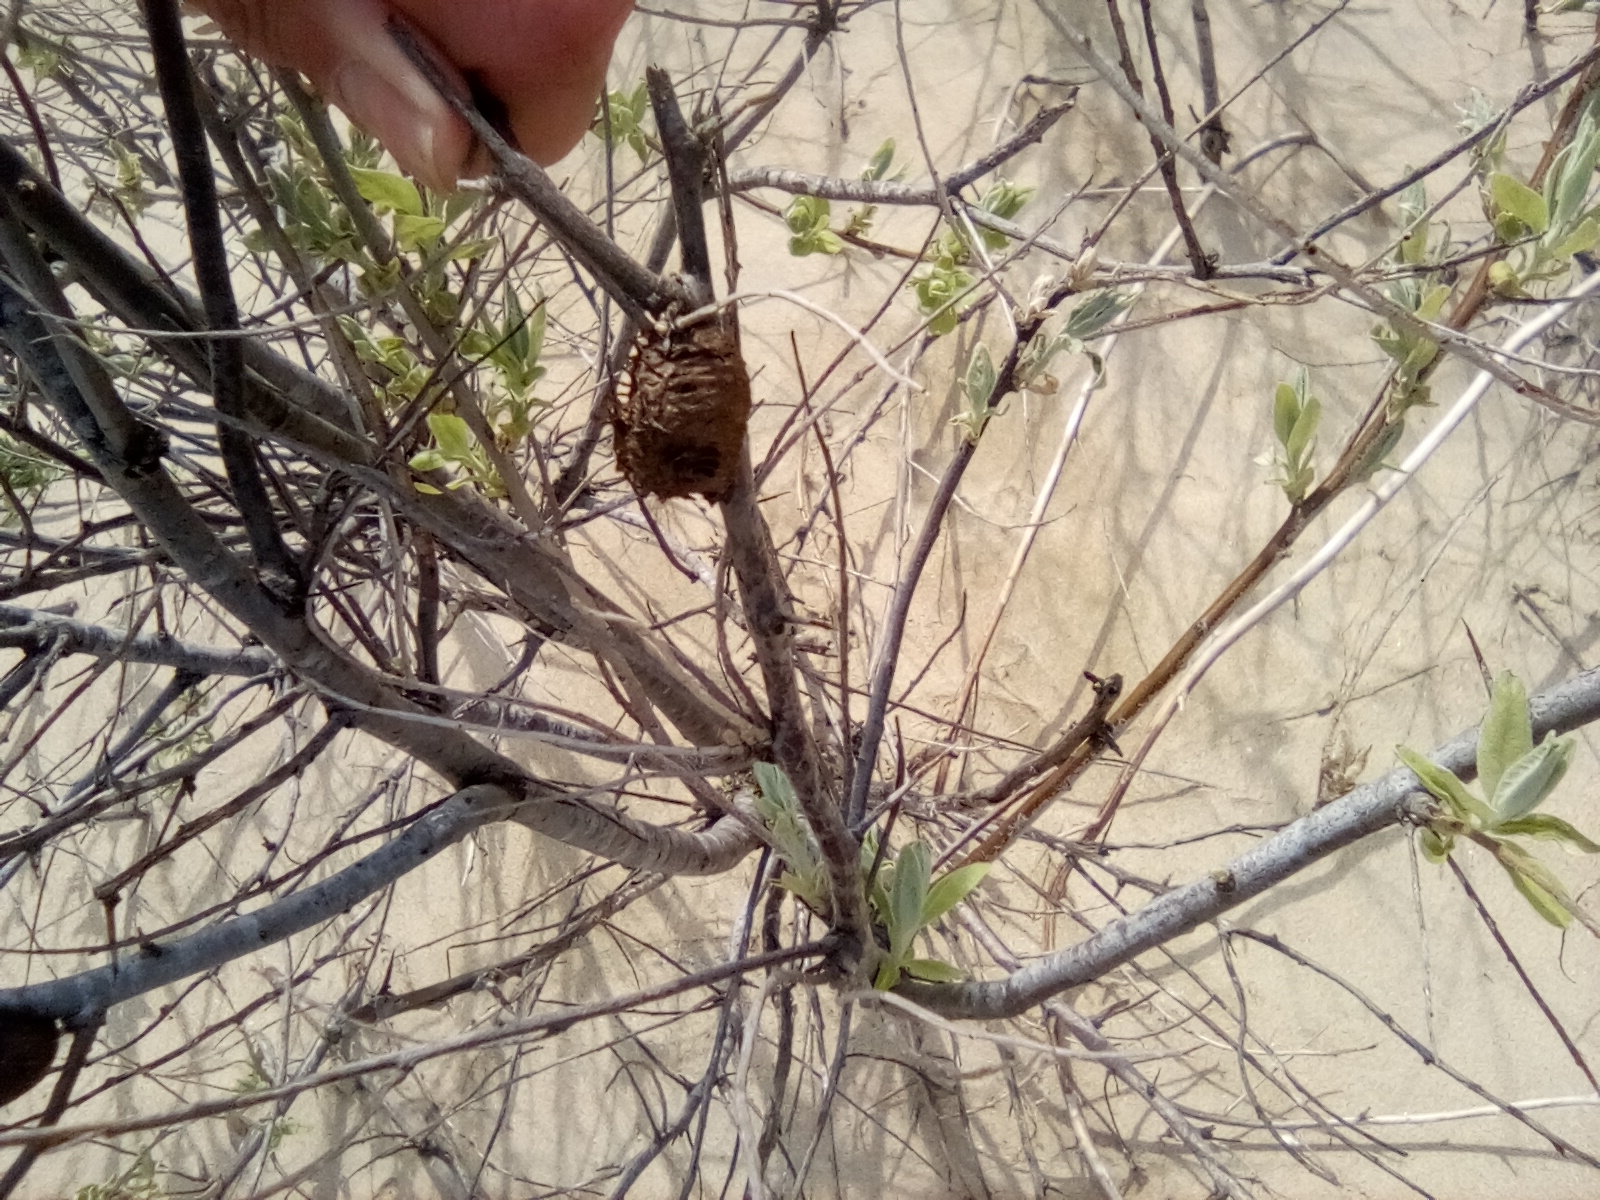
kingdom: Animalia
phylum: Arthropoda
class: Insecta
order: Mantodea
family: Mantidae
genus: Hierodula
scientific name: Hierodula transcaucasica
